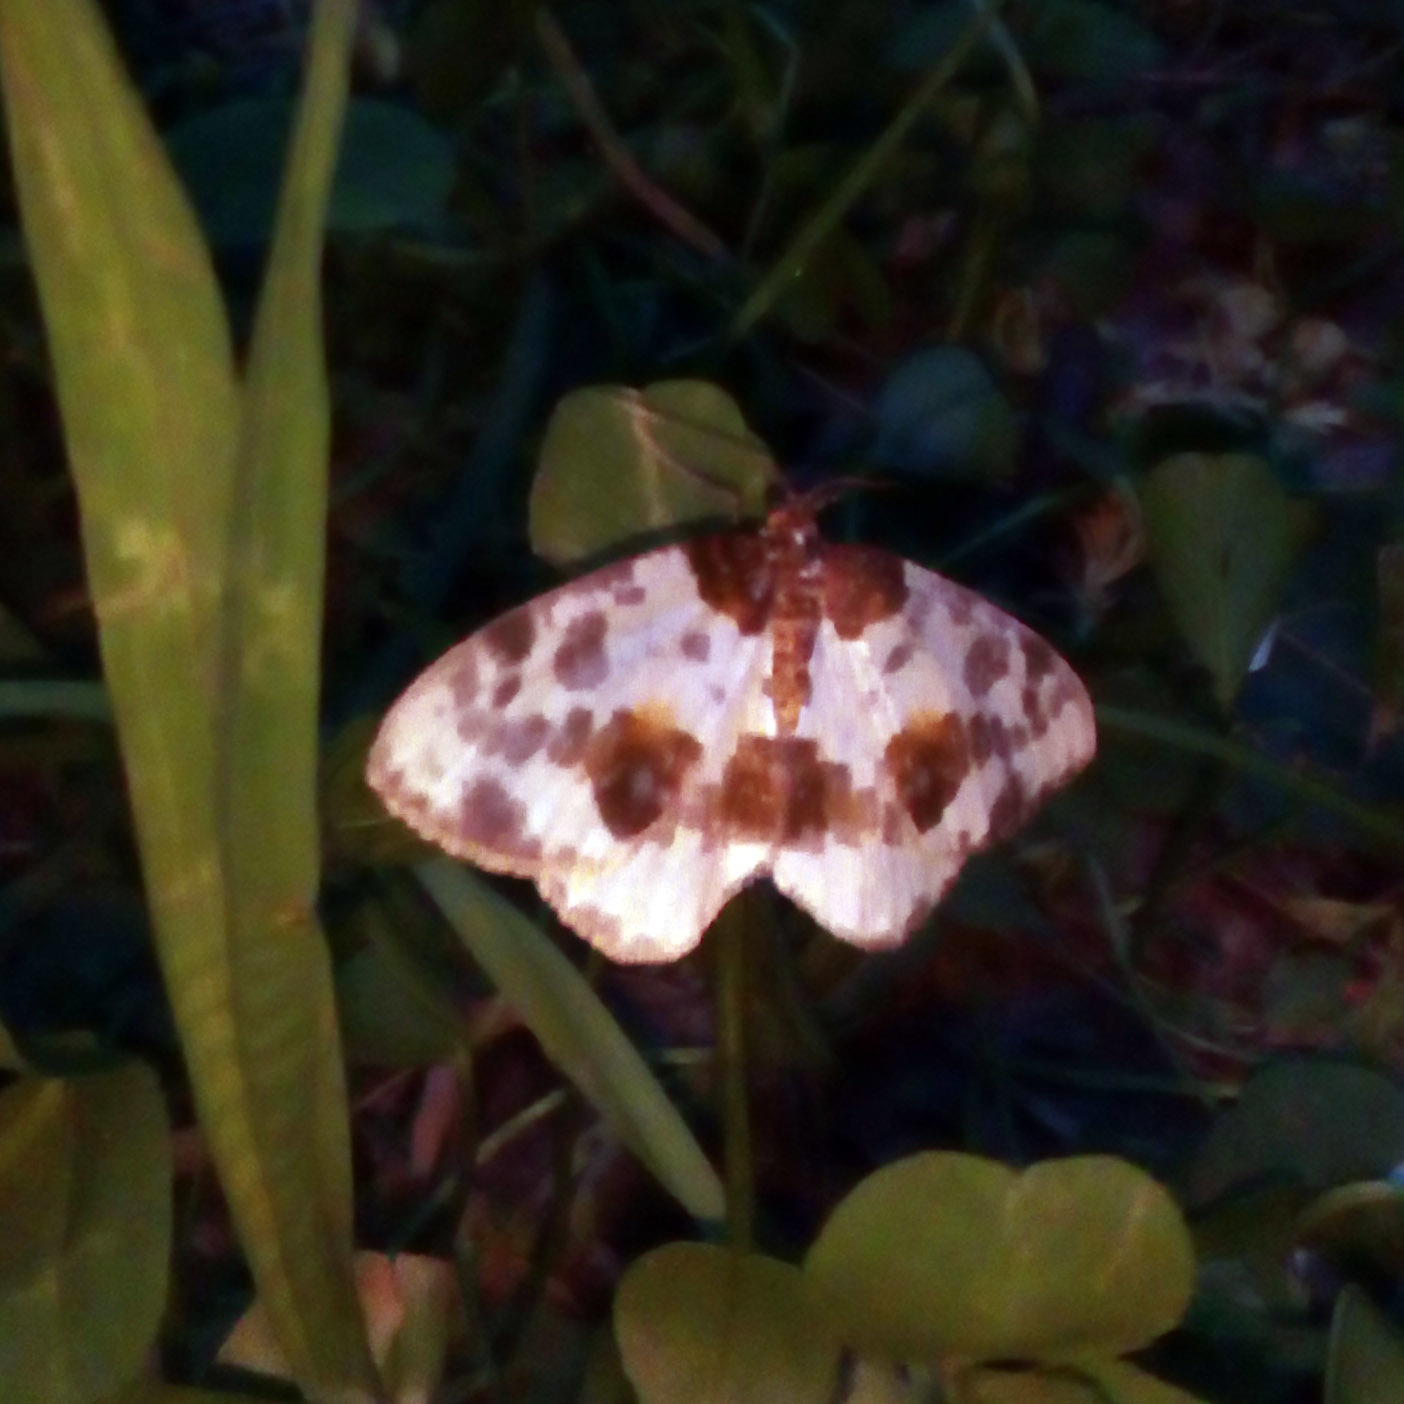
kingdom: Animalia
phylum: Arthropoda
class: Insecta
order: Lepidoptera
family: Geometridae
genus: Abraxas
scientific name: Abraxas sylvata
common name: Clouded magpie
